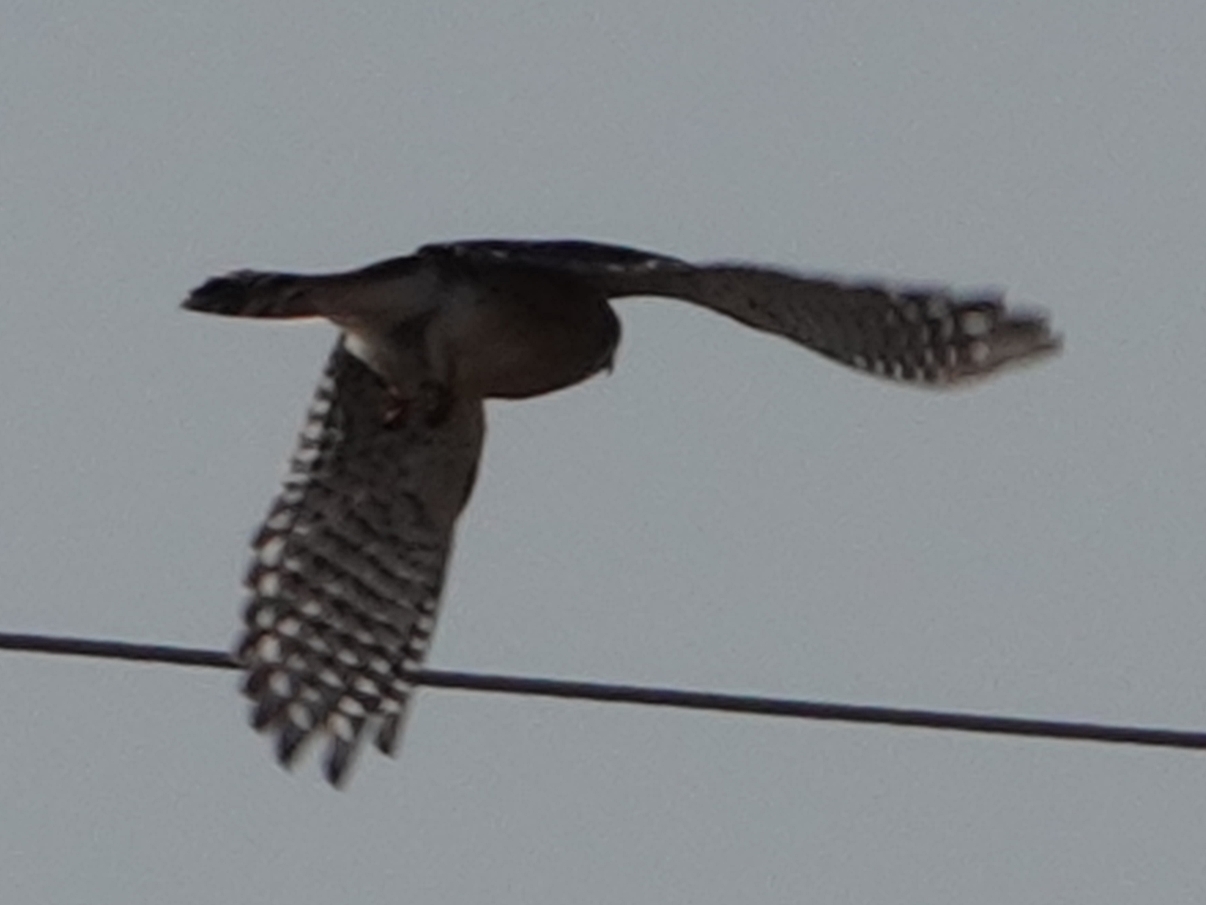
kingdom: Animalia
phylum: Chordata
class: Aves
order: Falconiformes
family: Falconidae
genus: Falco
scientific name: Falco sparverius
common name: American kestrel
